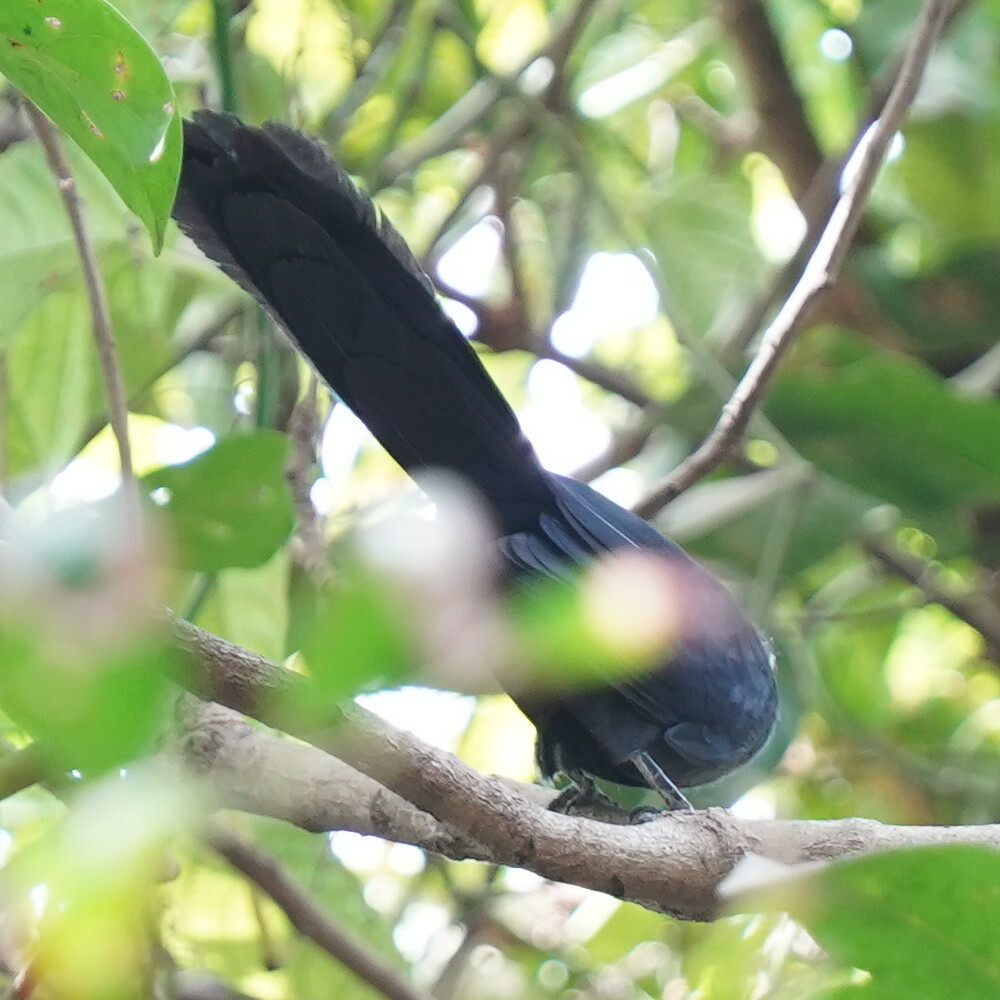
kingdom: Animalia
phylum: Chordata
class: Aves
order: Cuculiformes
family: Cuculidae
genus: Ceuthmochares
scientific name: Ceuthmochares aereus
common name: Blue malkoha
